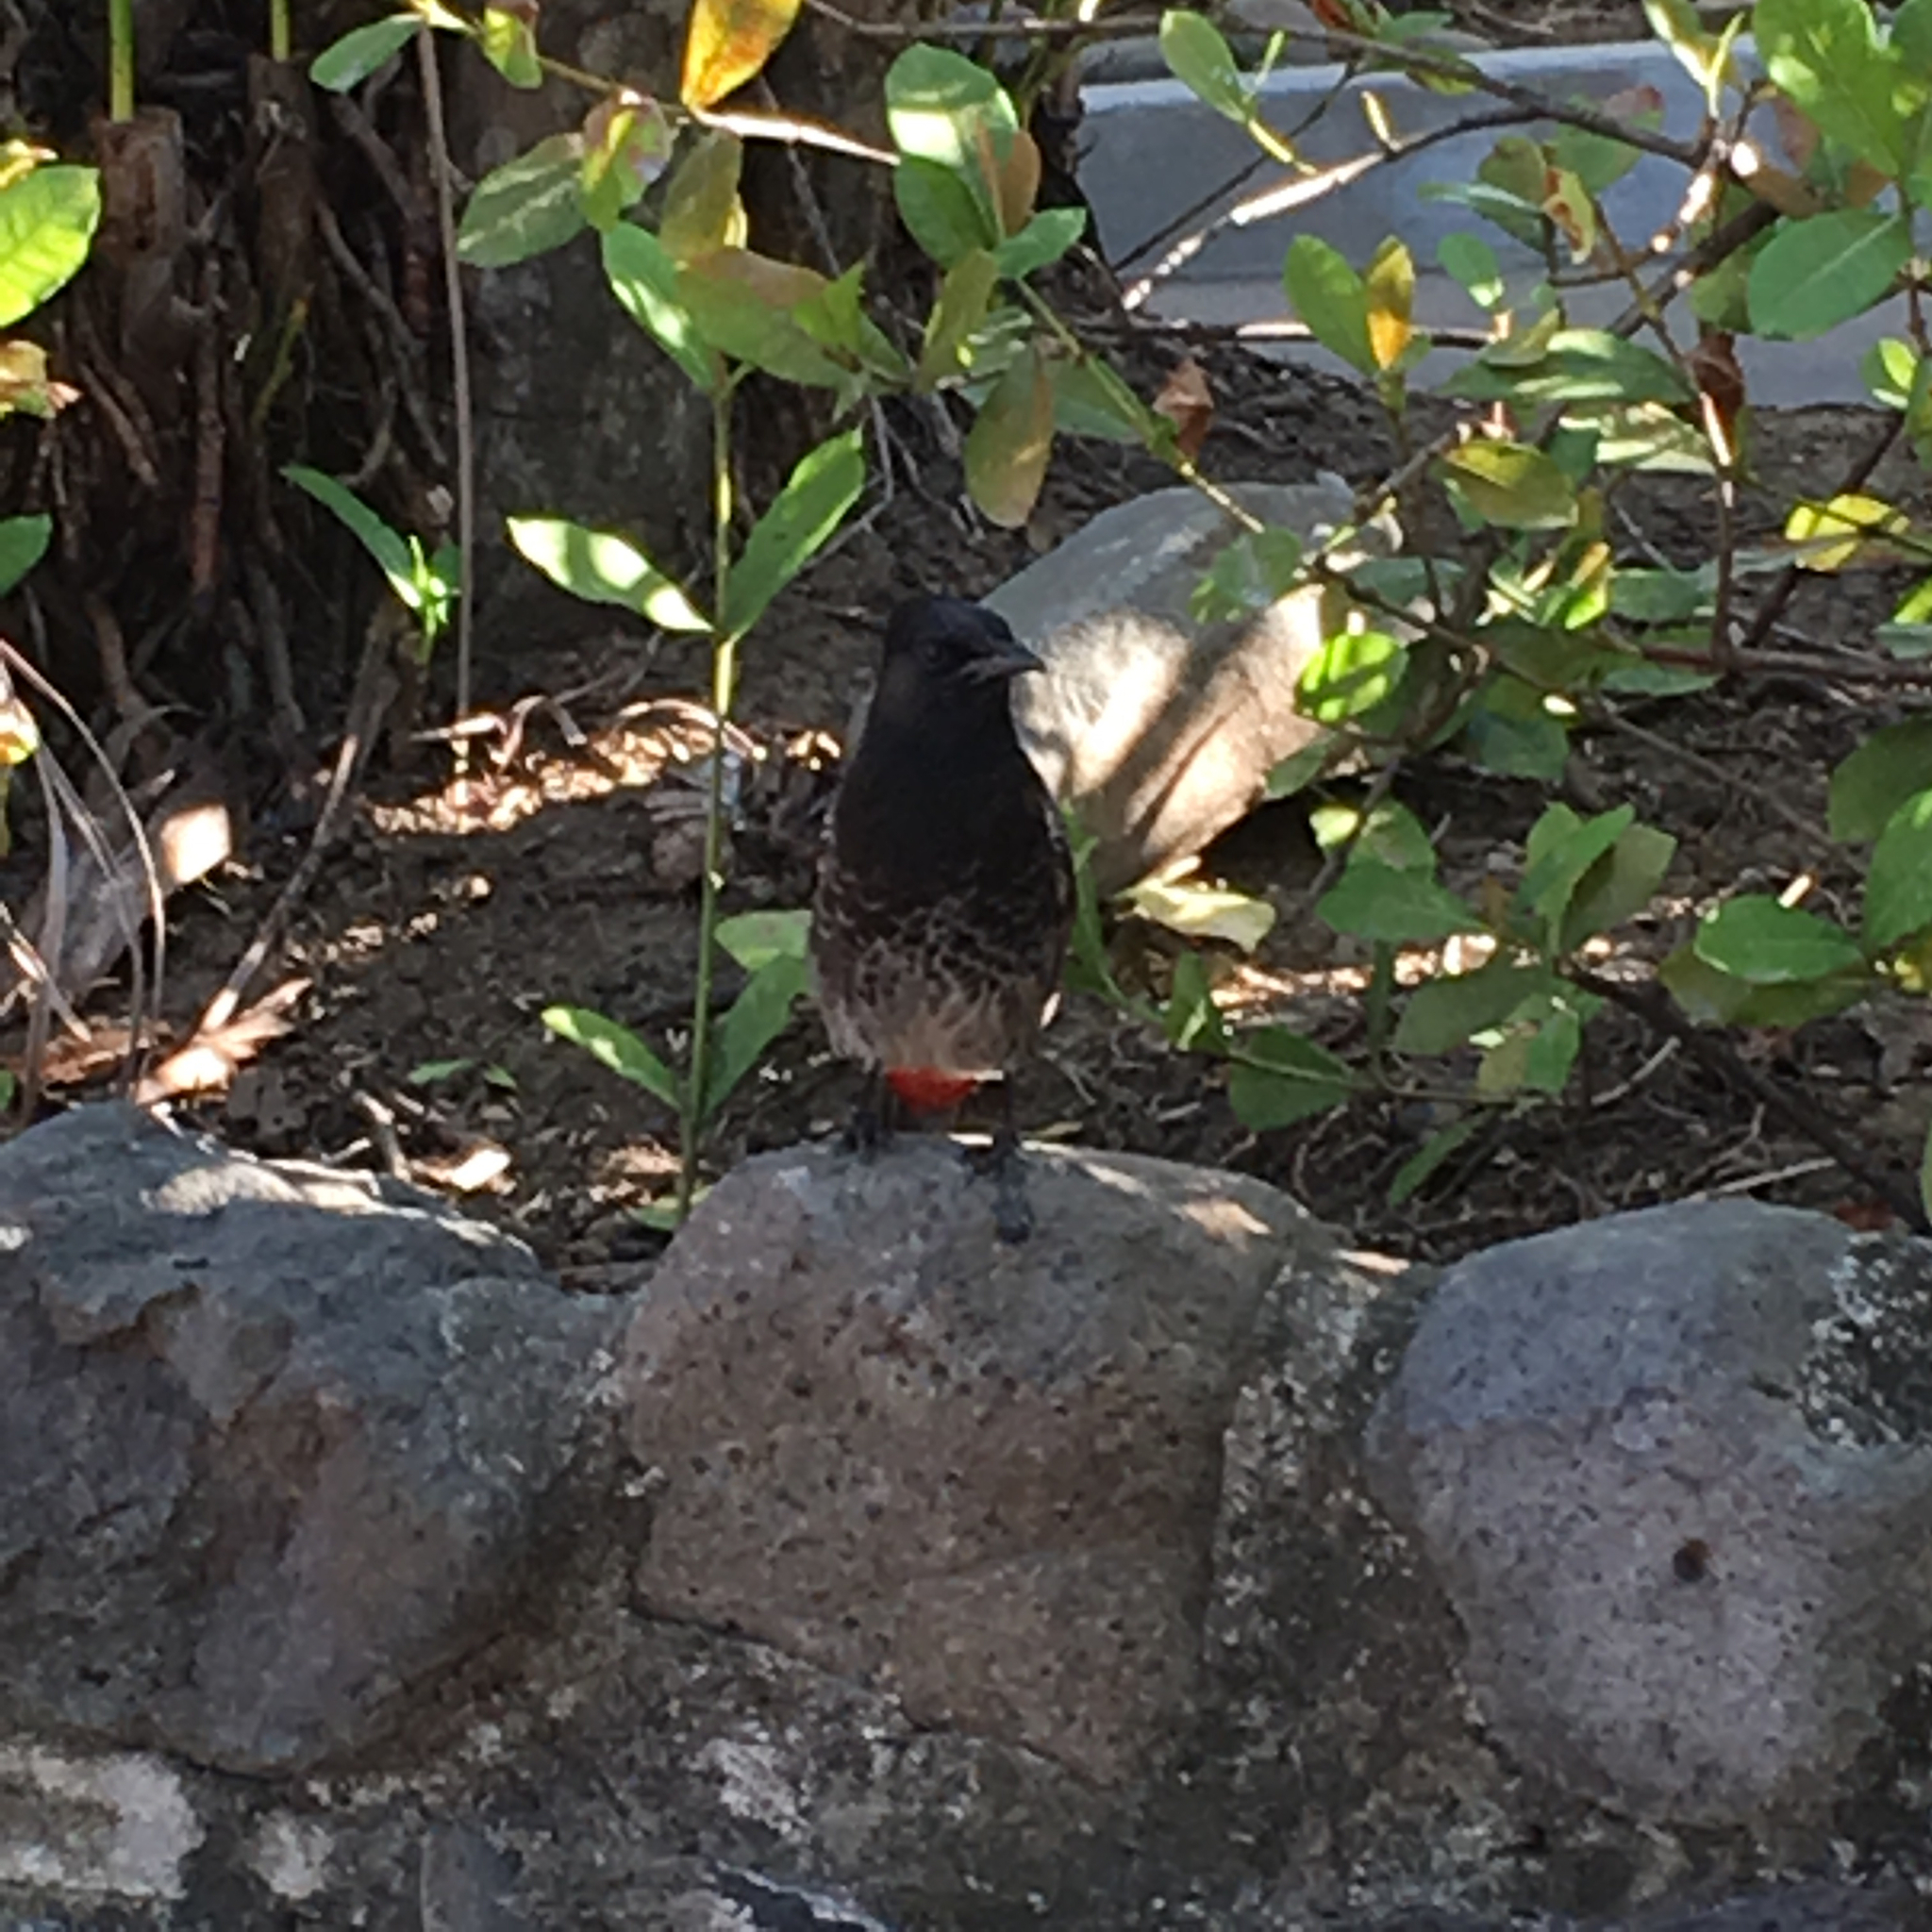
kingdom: Animalia
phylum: Chordata
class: Aves
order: Passeriformes
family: Pycnonotidae
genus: Pycnonotus
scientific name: Pycnonotus cafer
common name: Red-vented bulbul
